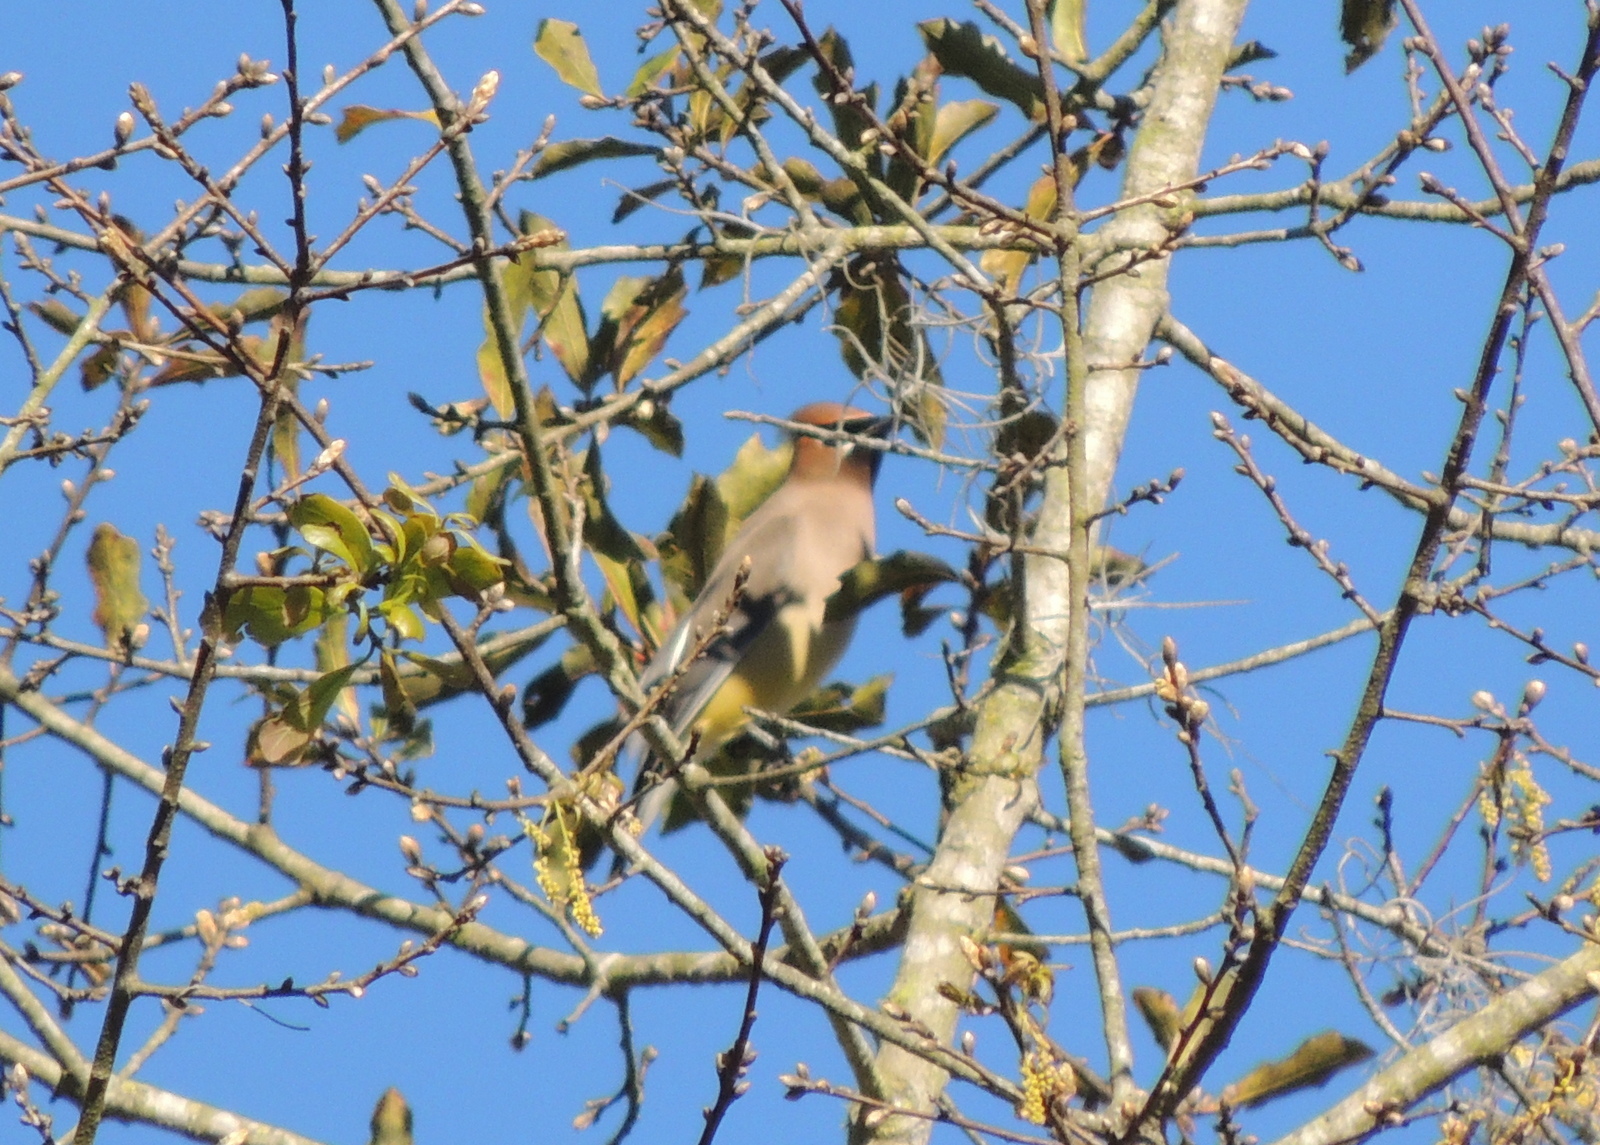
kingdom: Animalia
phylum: Chordata
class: Aves
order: Passeriformes
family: Bombycillidae
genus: Bombycilla
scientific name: Bombycilla cedrorum
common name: Cedar waxwing
